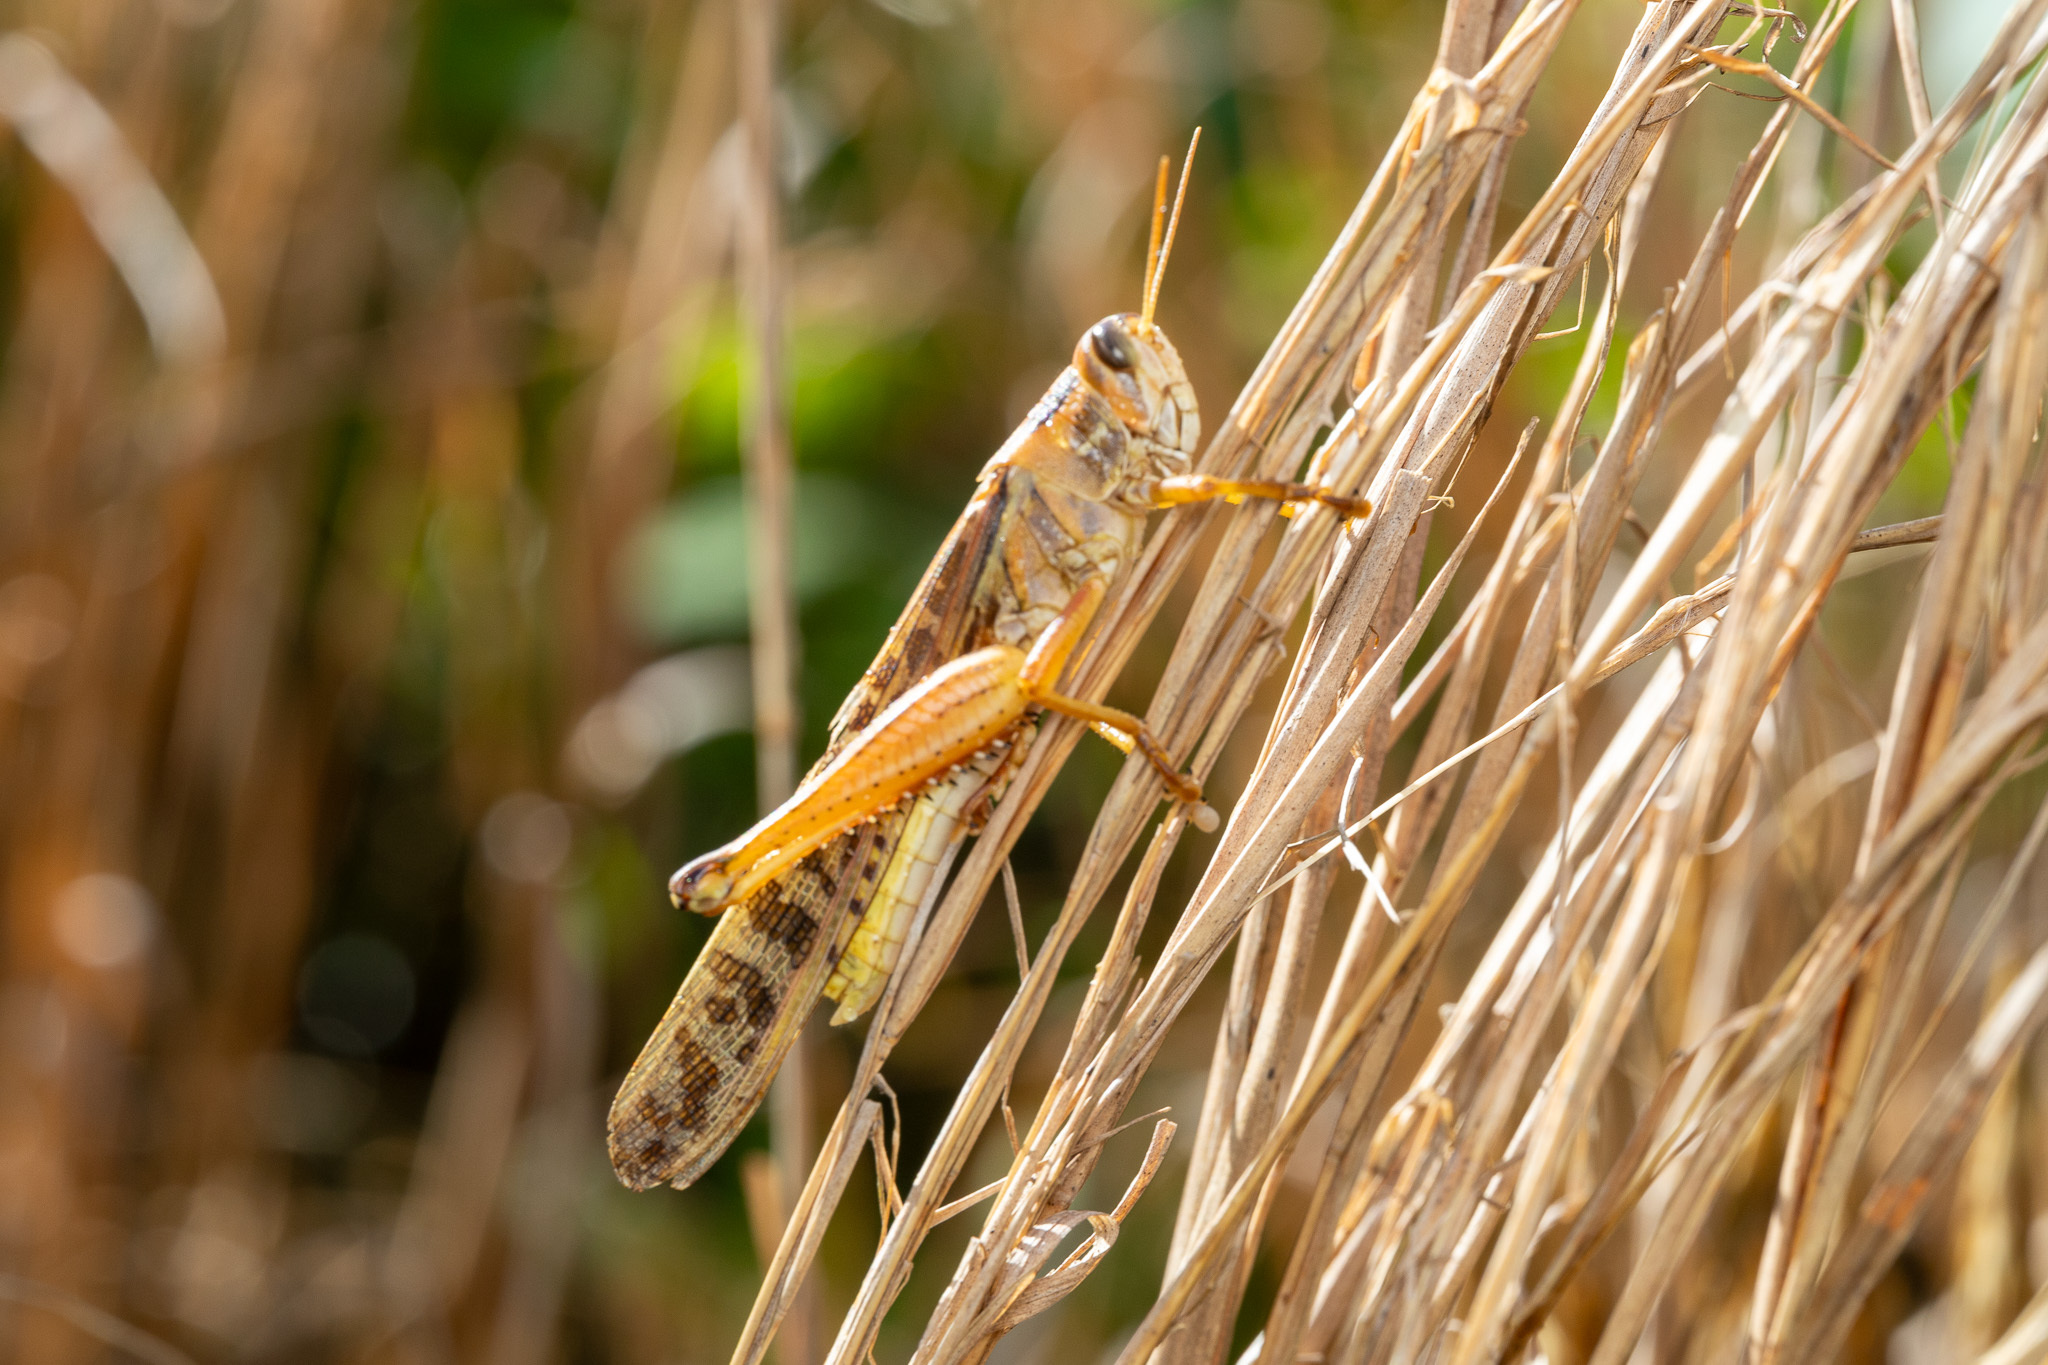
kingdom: Animalia
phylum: Arthropoda
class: Insecta
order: Orthoptera
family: Acrididae
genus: Schistocerca
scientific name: Schistocerca americana
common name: American bird locust
